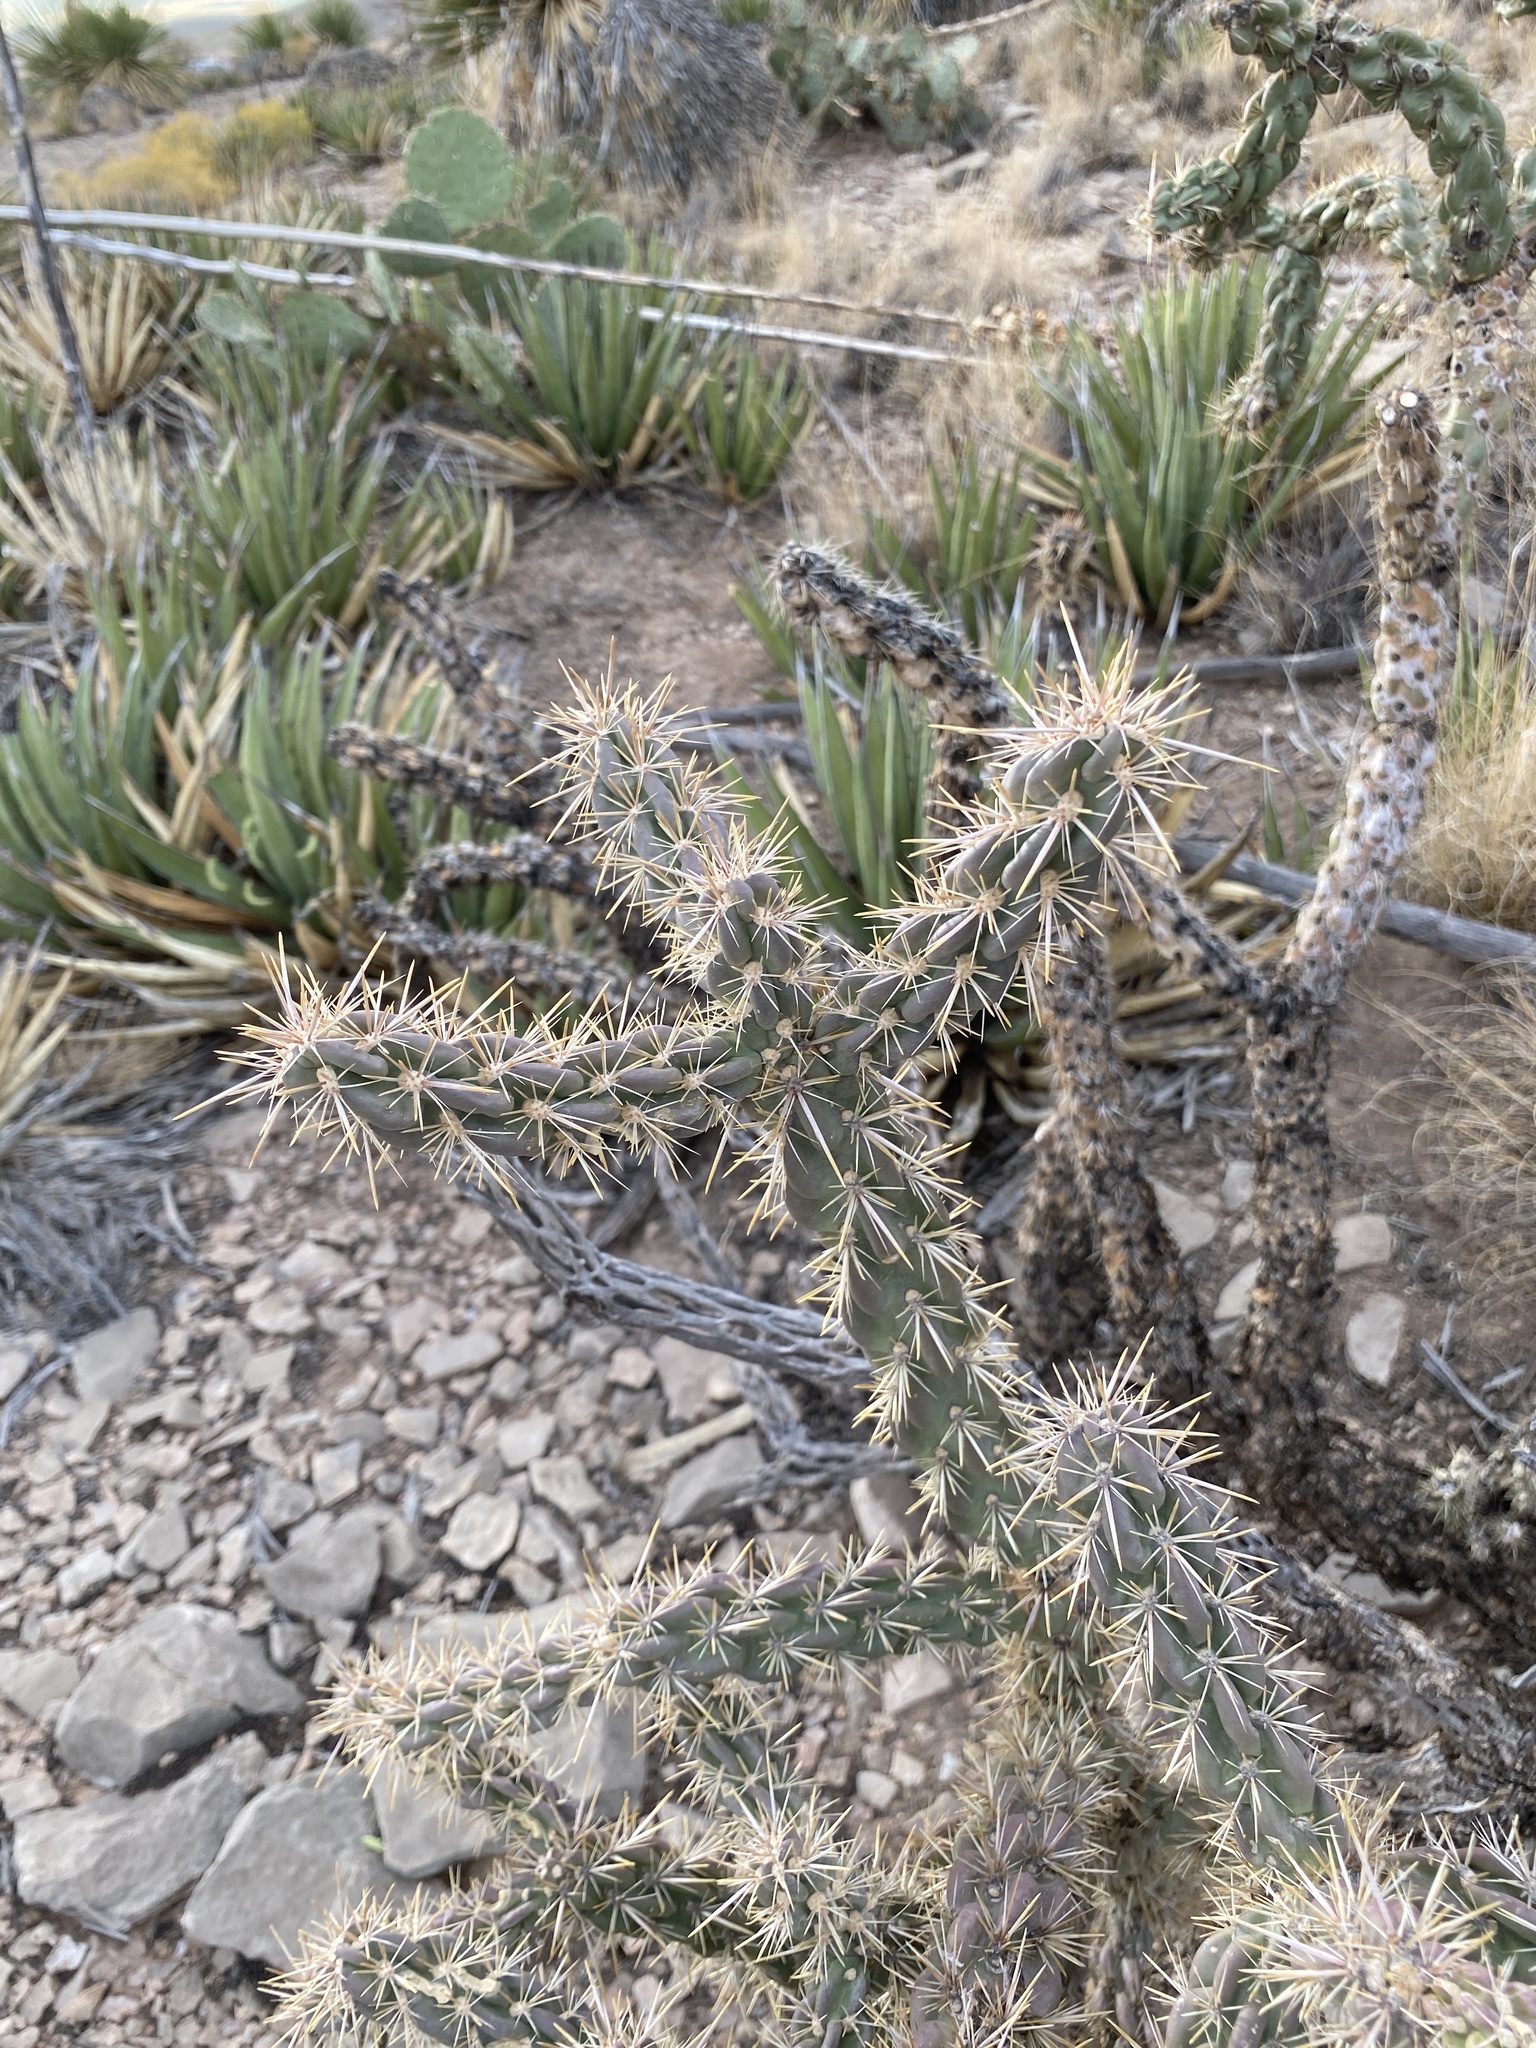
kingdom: Plantae
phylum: Tracheophyta
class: Magnoliopsida
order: Caryophyllales
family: Cactaceae
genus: Cylindropuntia
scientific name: Cylindropuntia imbricata
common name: Candelabrum cactus
